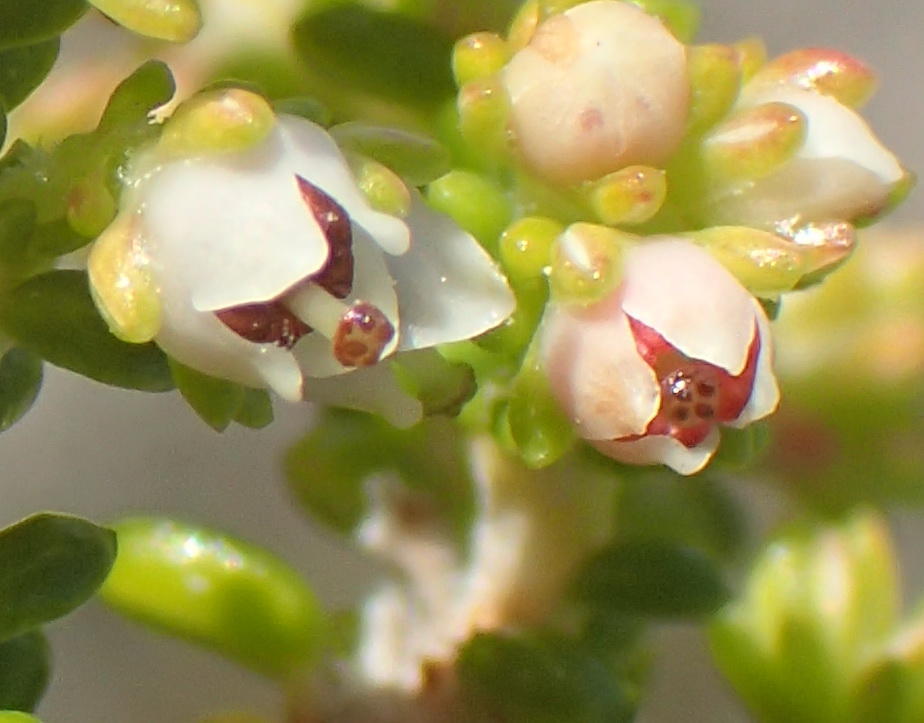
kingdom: Plantae
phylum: Tracheophyta
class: Magnoliopsida
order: Ericales
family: Ericaceae
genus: Erica
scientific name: Erica arenaria
